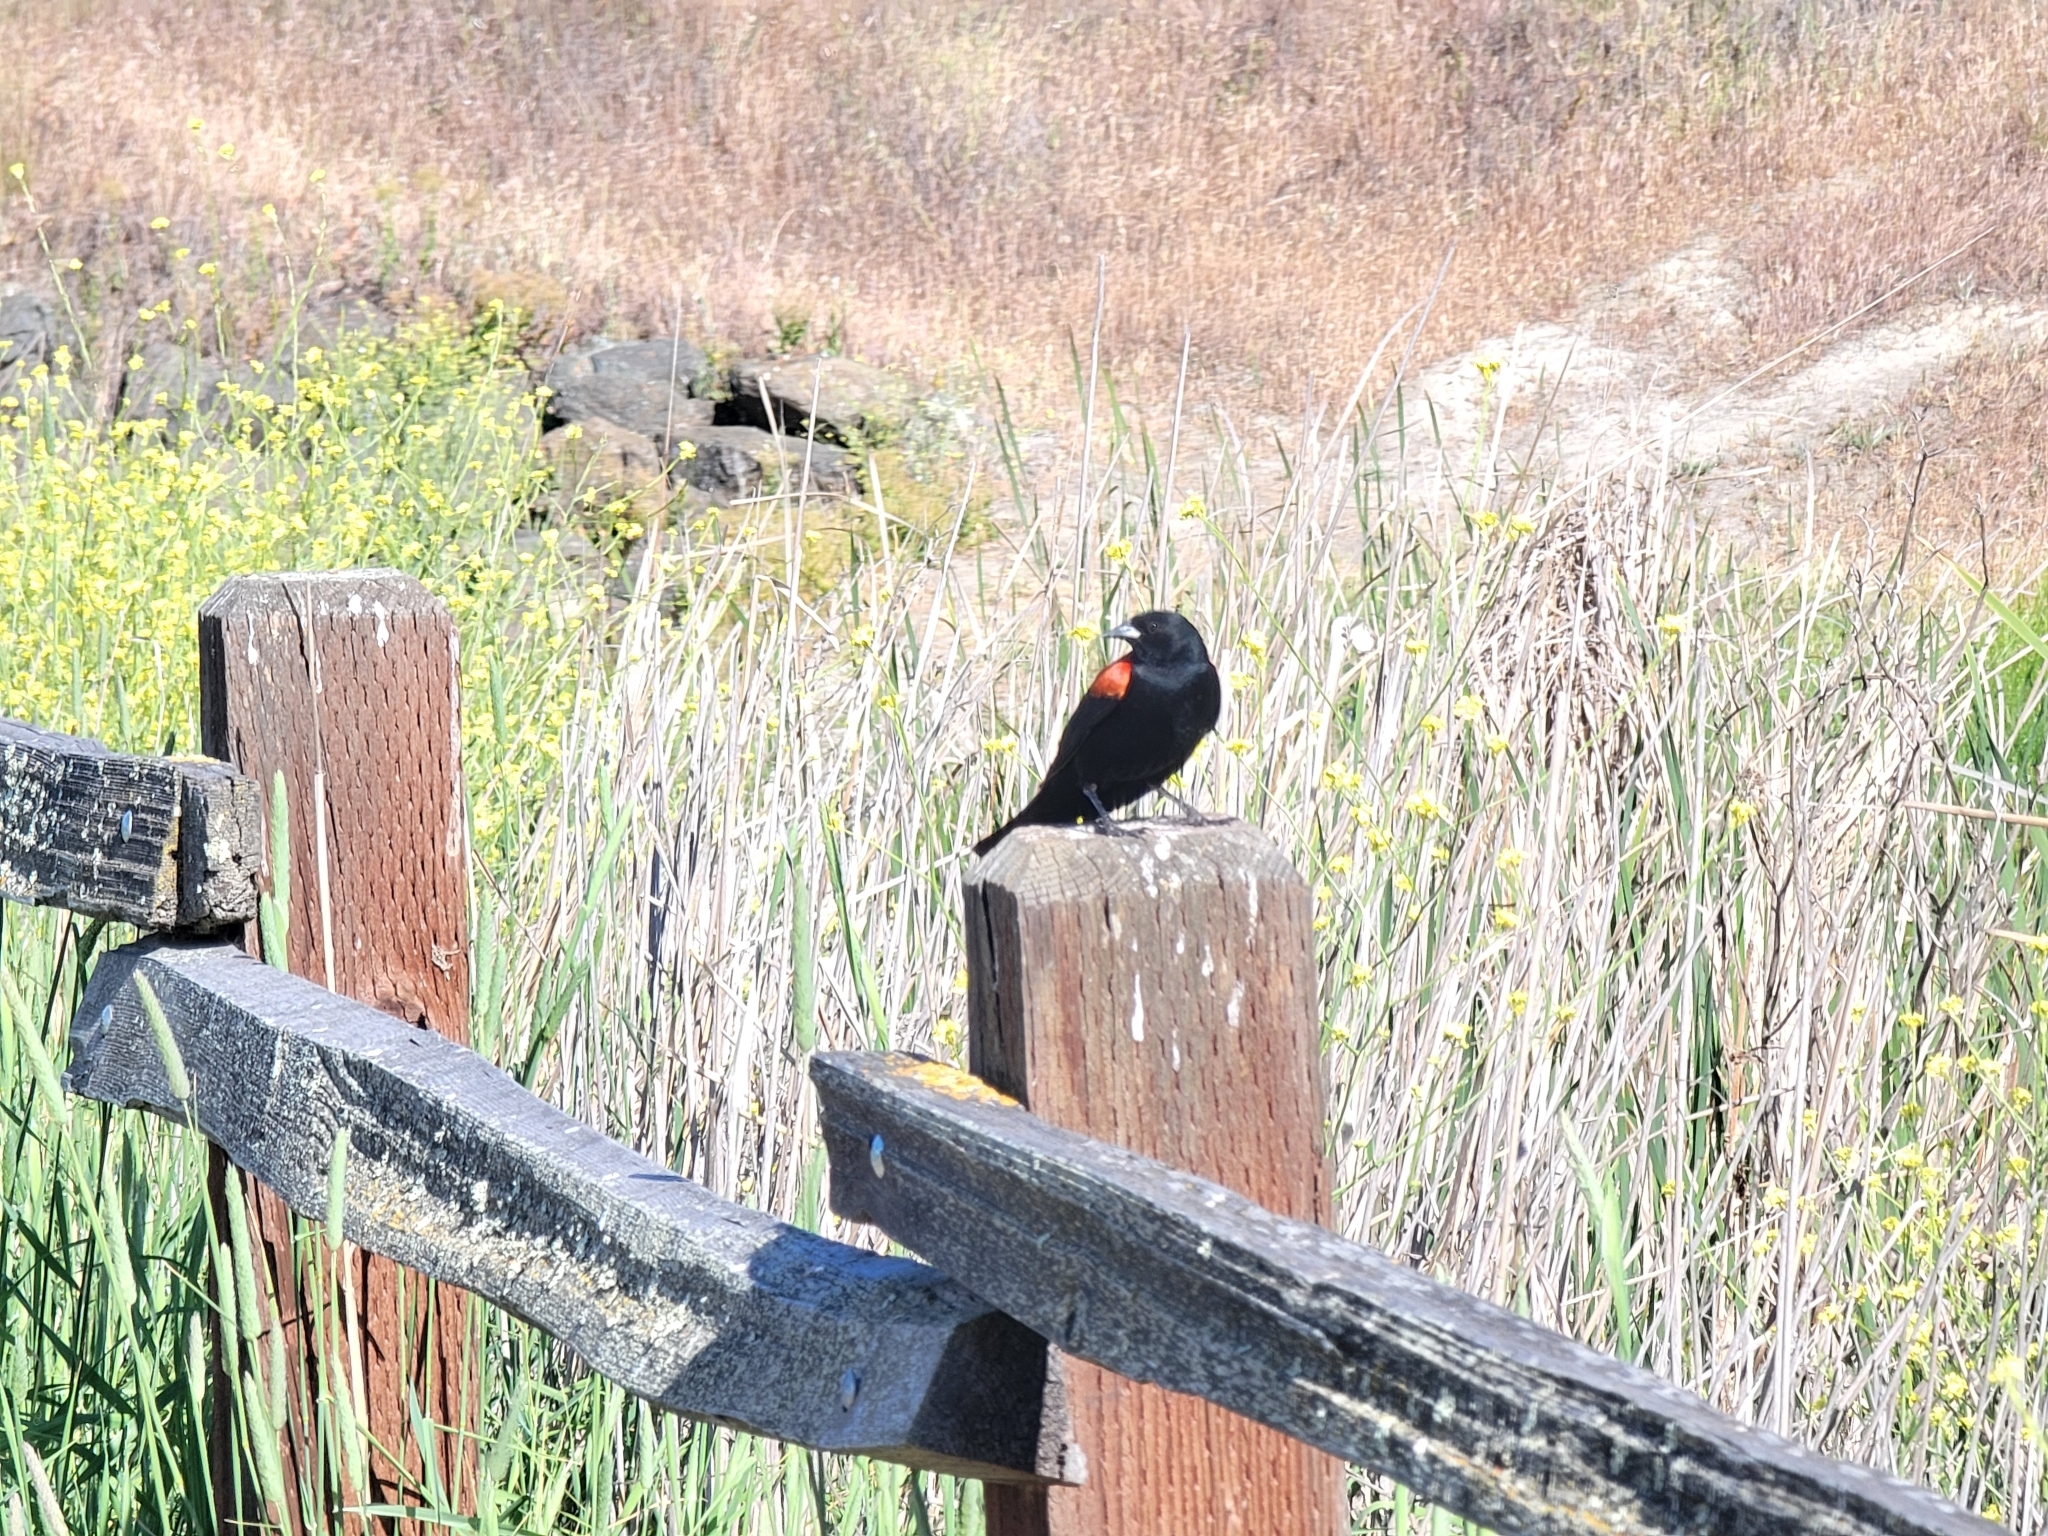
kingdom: Animalia
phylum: Chordata
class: Aves
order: Passeriformes
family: Icteridae
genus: Agelaius
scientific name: Agelaius phoeniceus
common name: Red-winged blackbird
